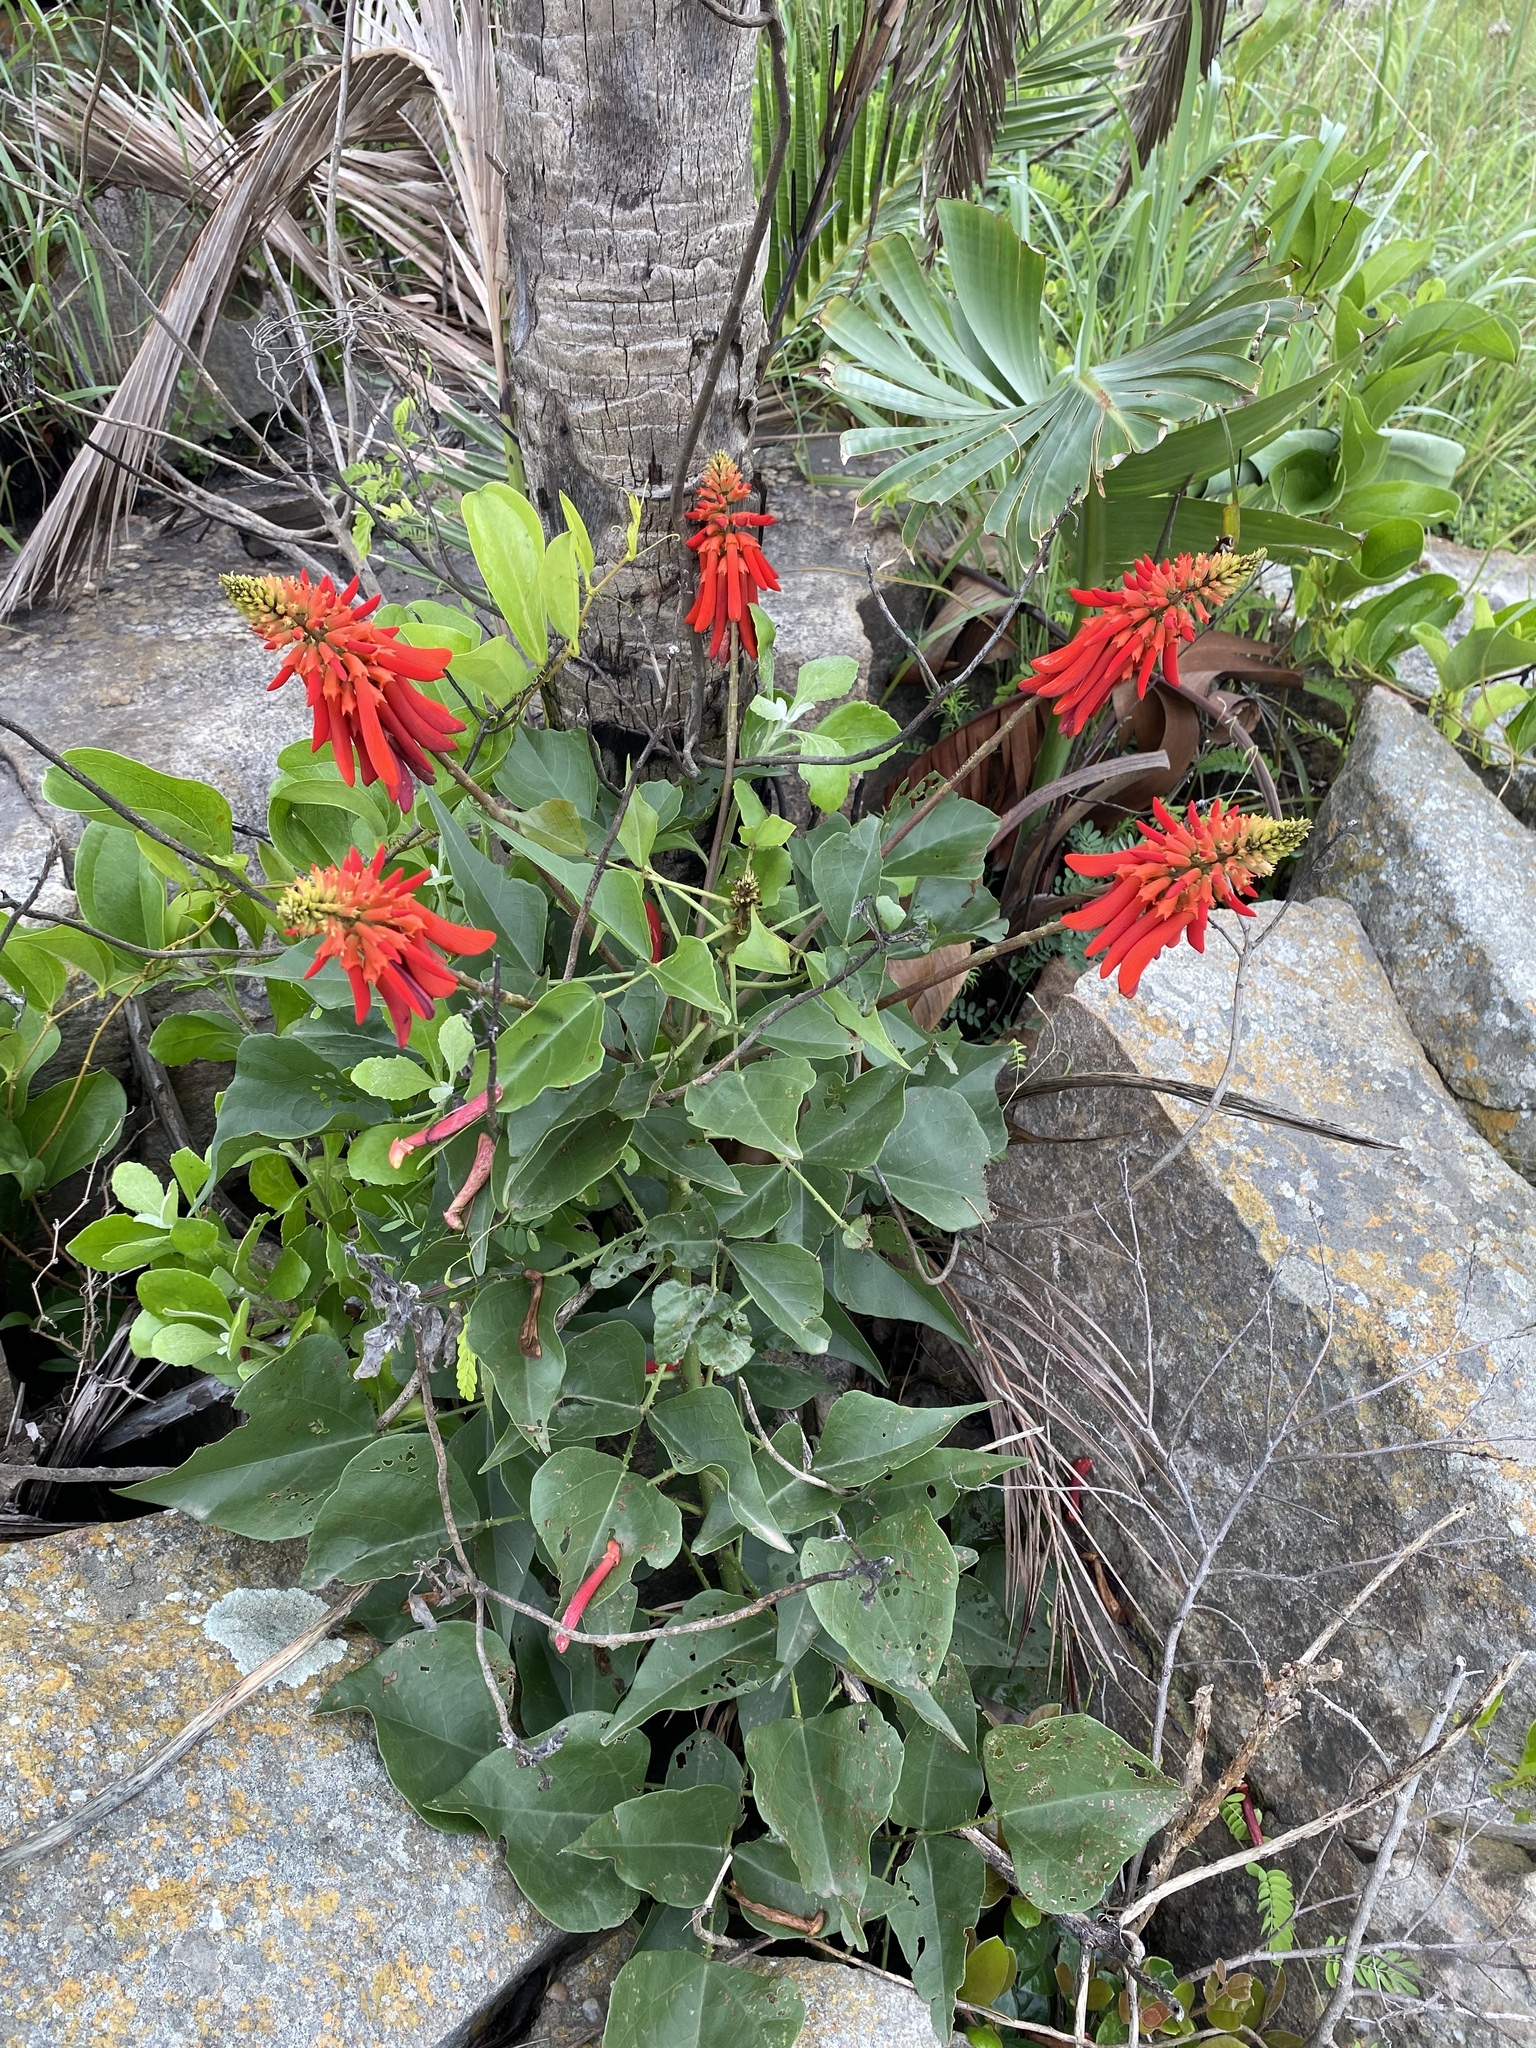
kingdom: Plantae
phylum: Tracheophyta
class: Magnoliopsida
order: Fabales
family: Fabaceae
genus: Erythrina
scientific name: Erythrina humeana
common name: Dwarf coral tree
